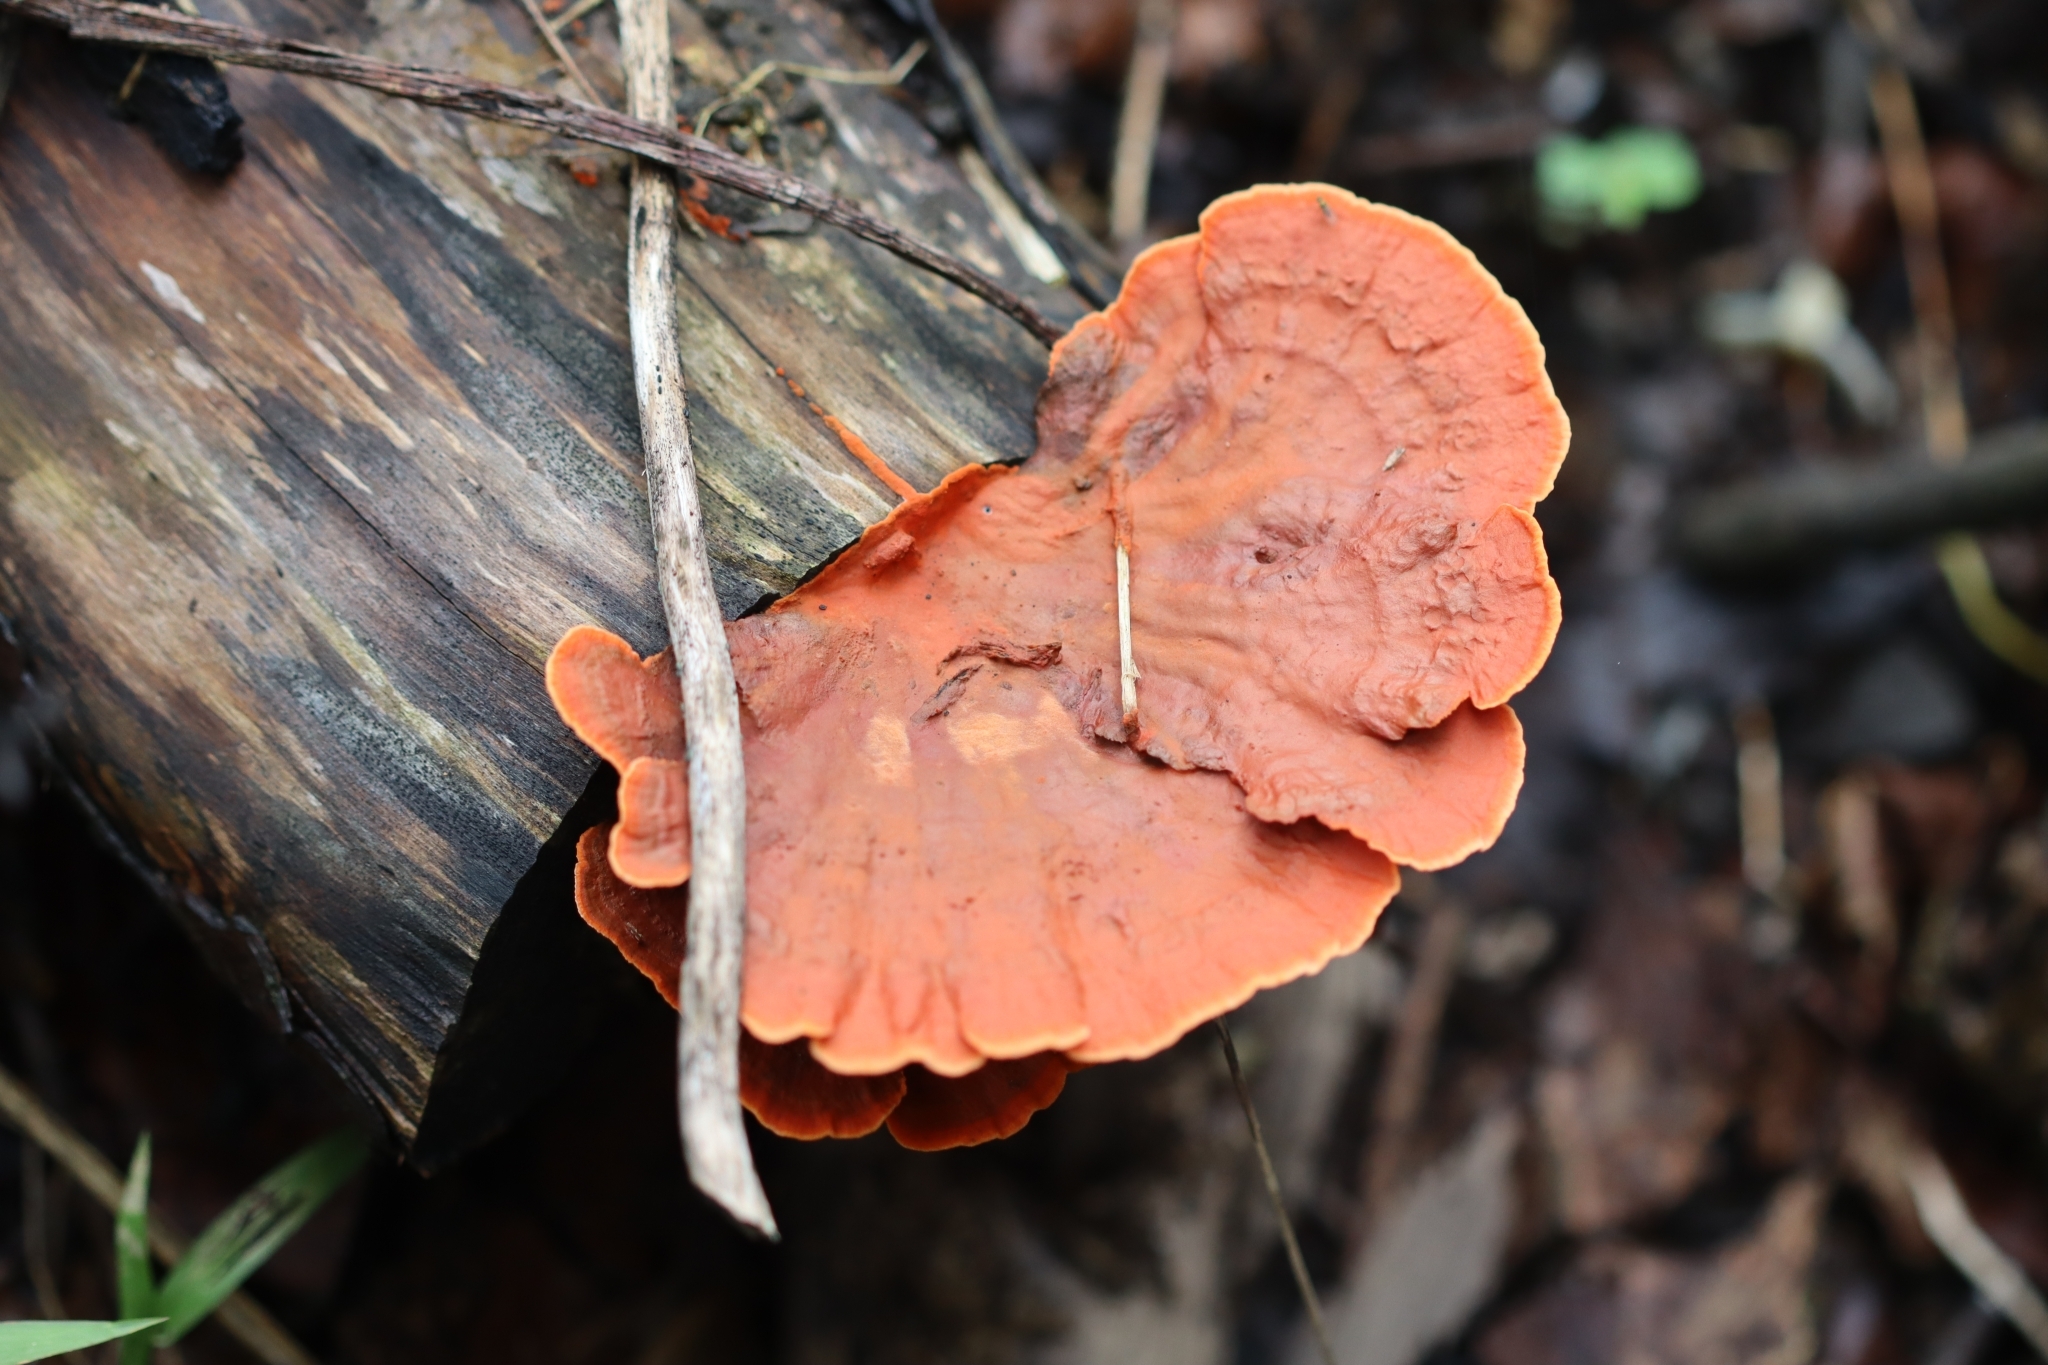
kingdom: Fungi
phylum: Basidiomycota
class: Agaricomycetes
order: Polyporales
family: Polyporaceae
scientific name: Polyporaceae
